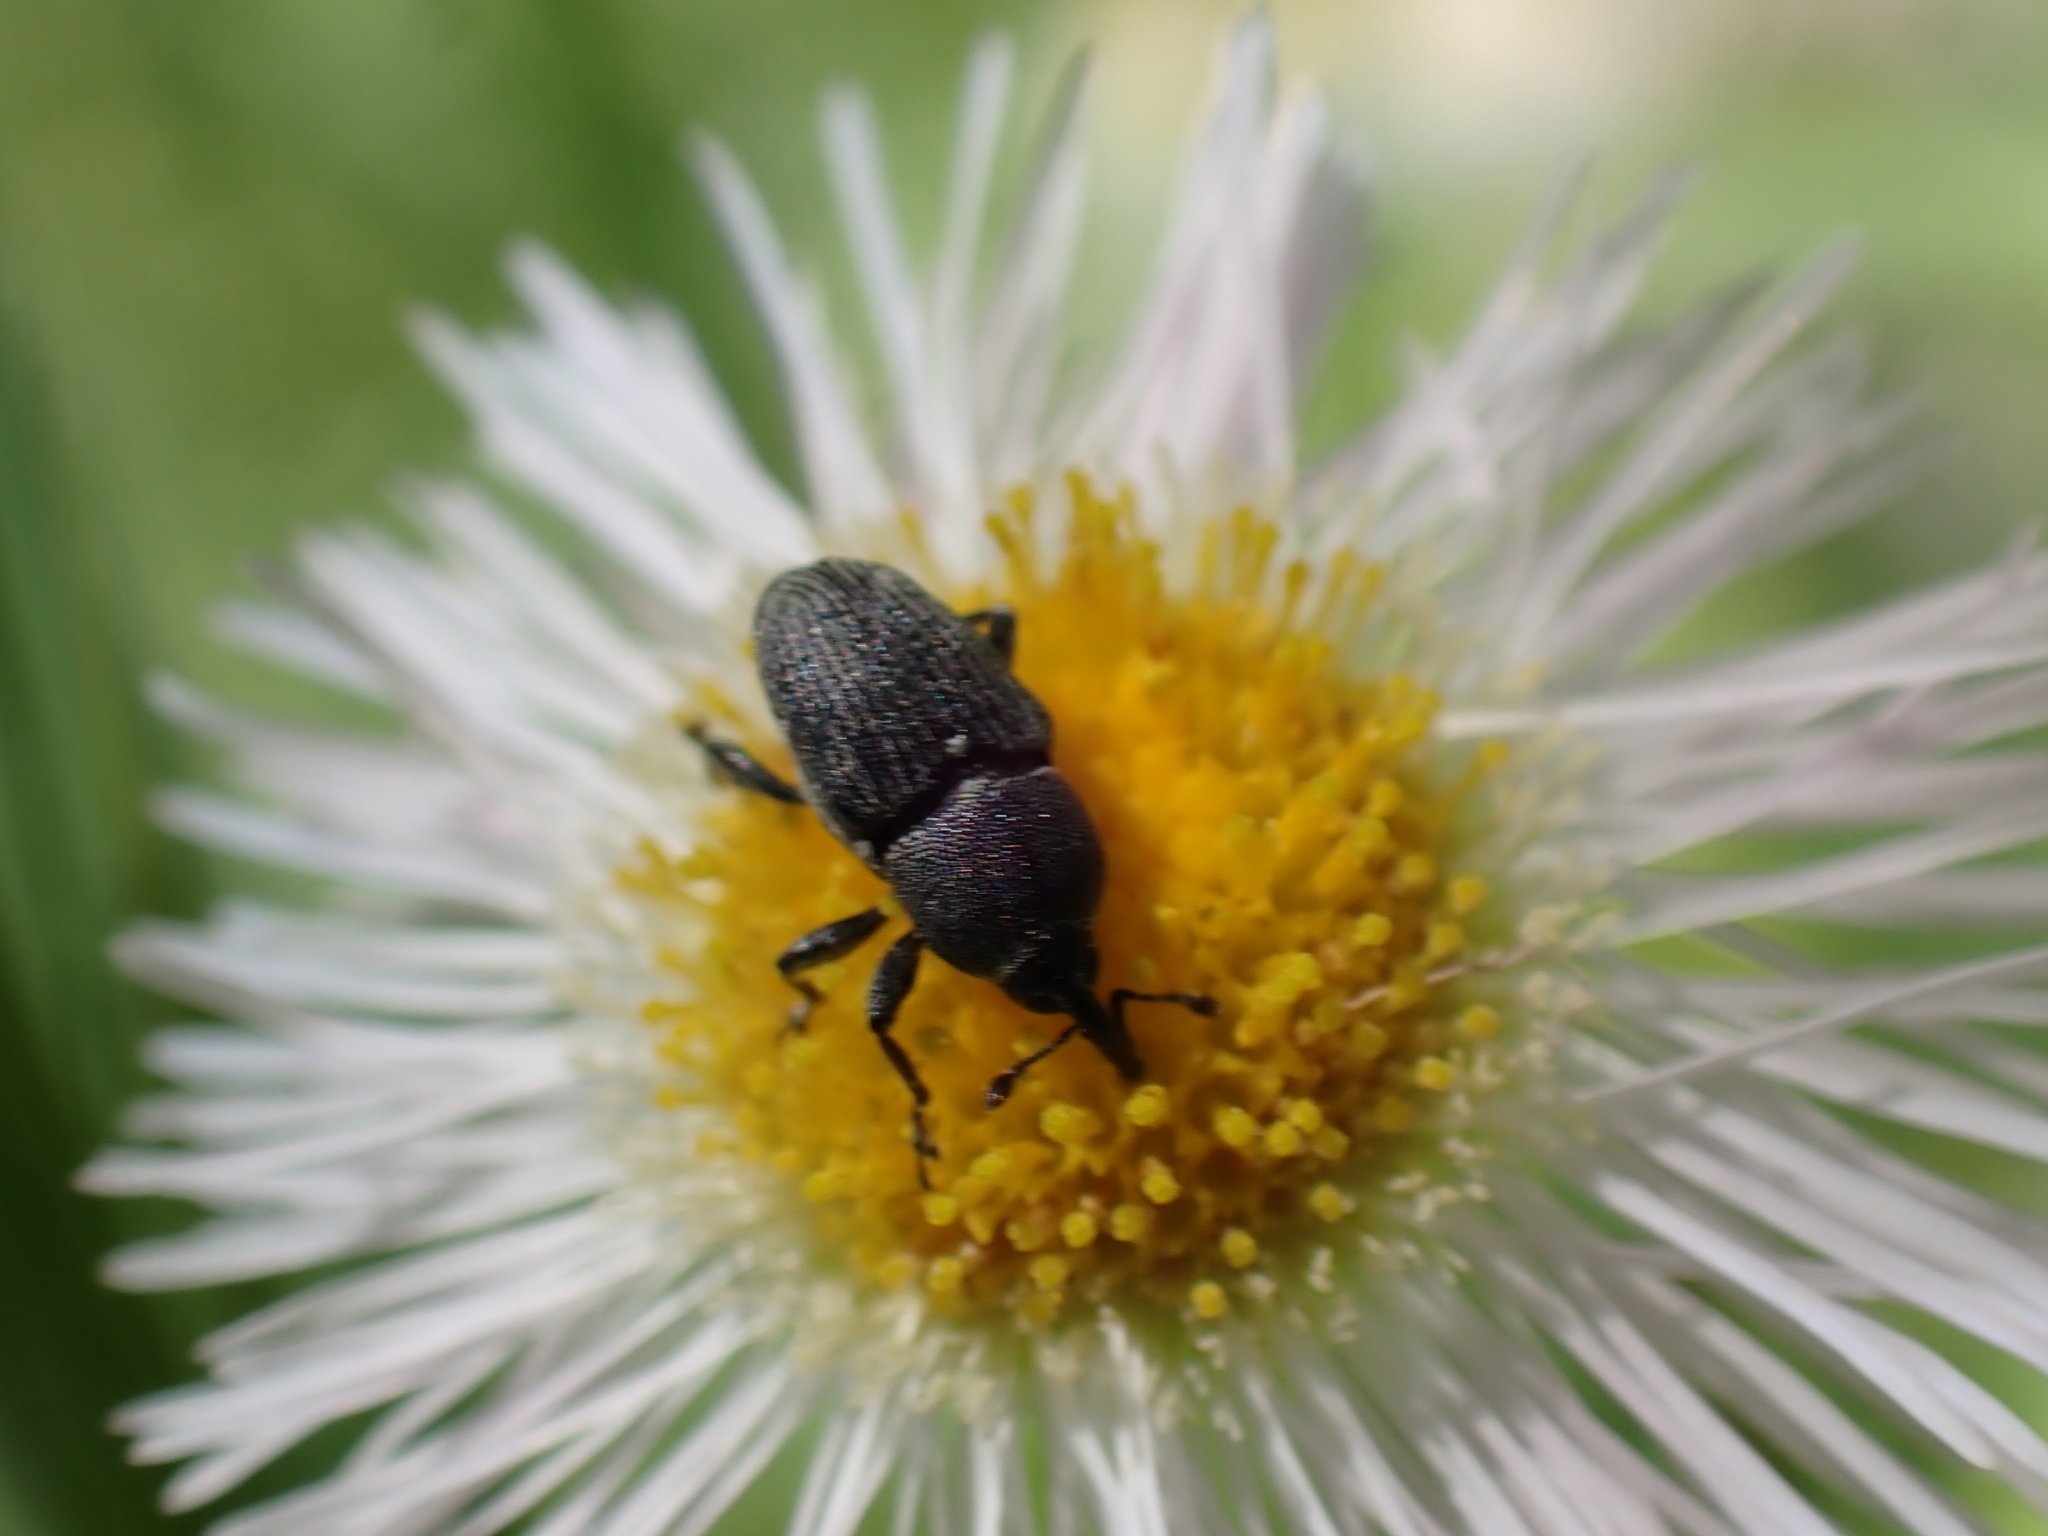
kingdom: Animalia
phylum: Arthropoda
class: Insecta
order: Coleoptera
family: Curculionidae
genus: Odontocorynus
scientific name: Odontocorynus salebrosus
